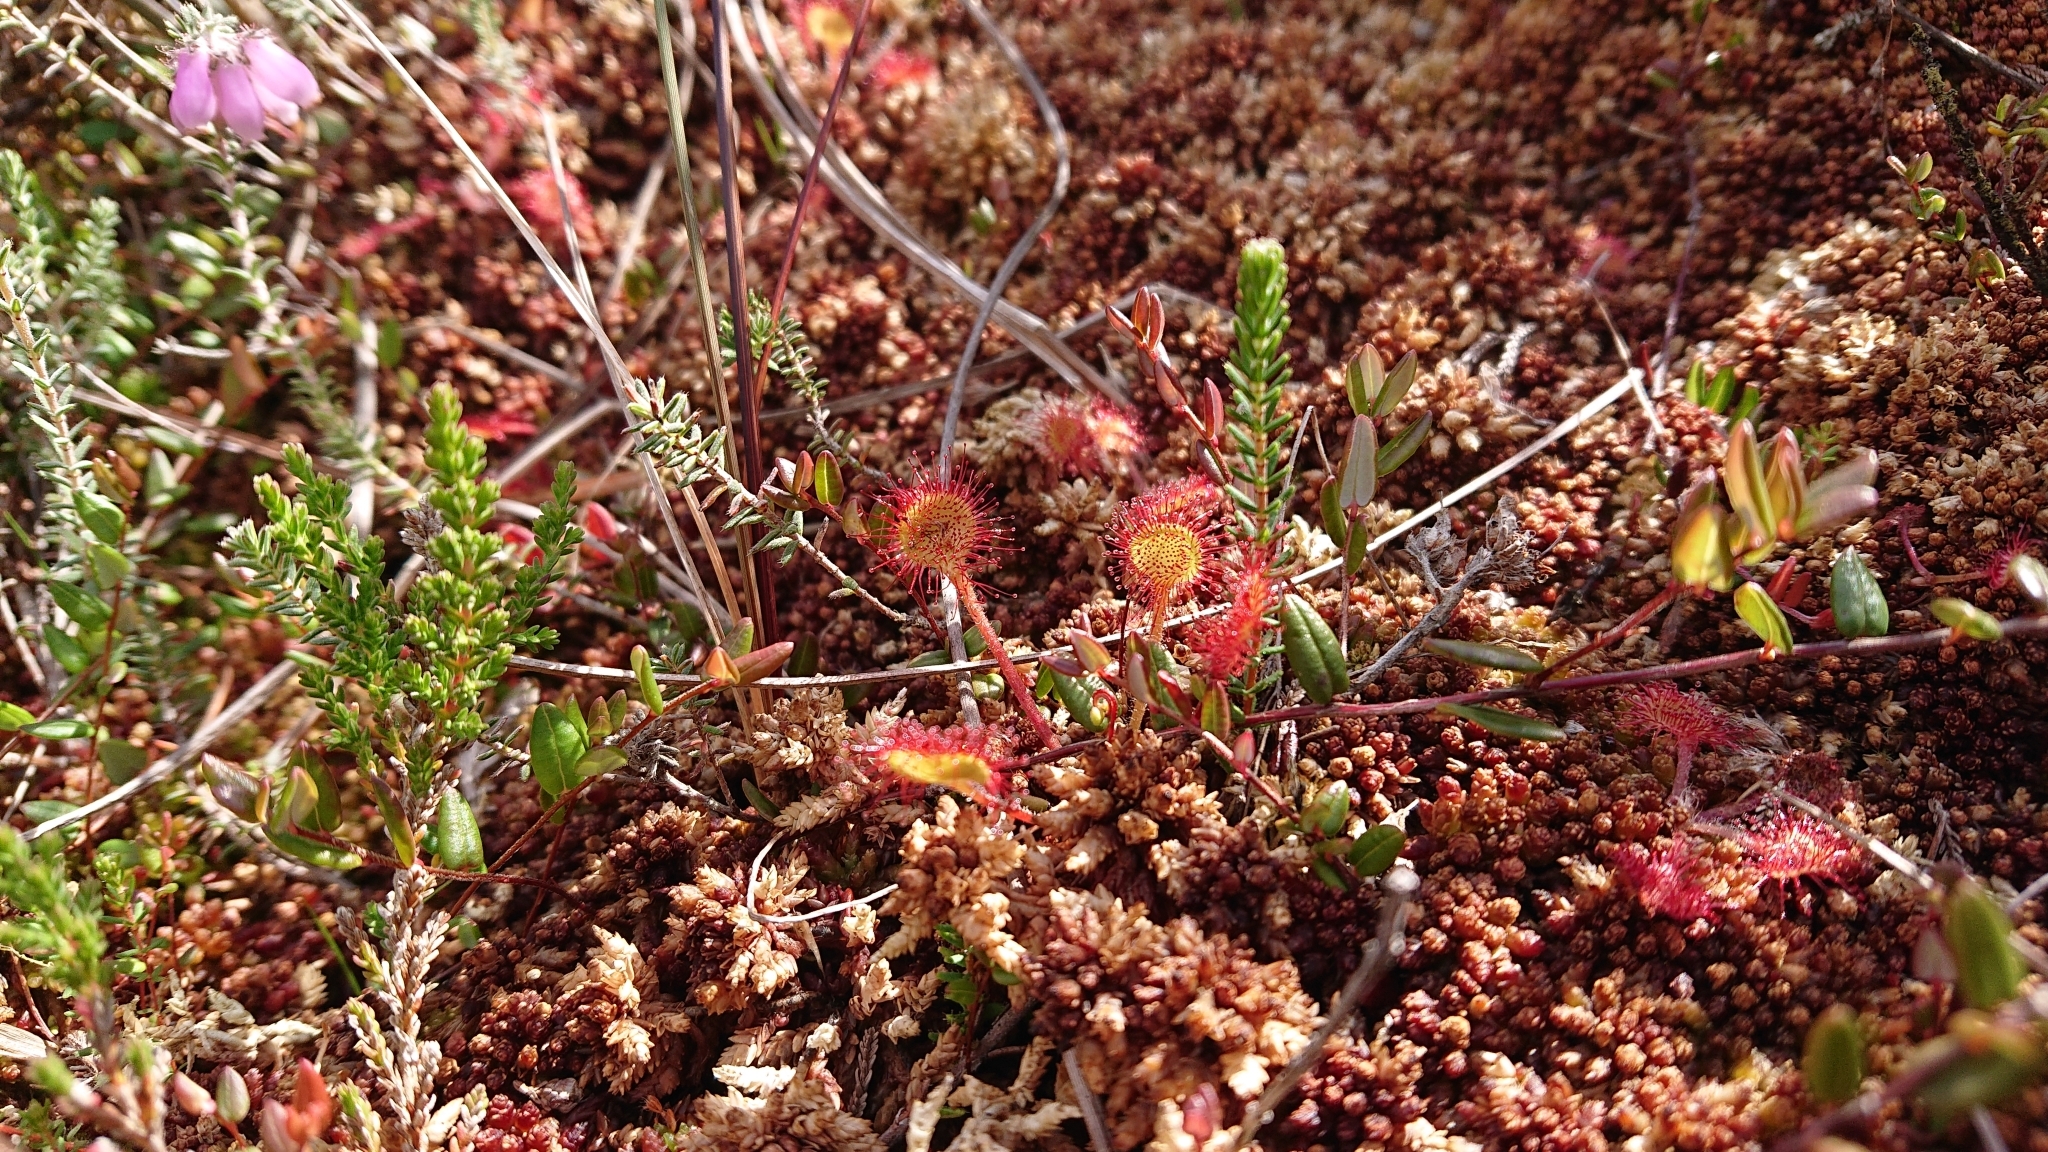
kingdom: Plantae
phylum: Tracheophyta
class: Magnoliopsida
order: Caryophyllales
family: Droseraceae
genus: Drosera
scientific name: Drosera rotundifolia
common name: Round-leaved sundew
